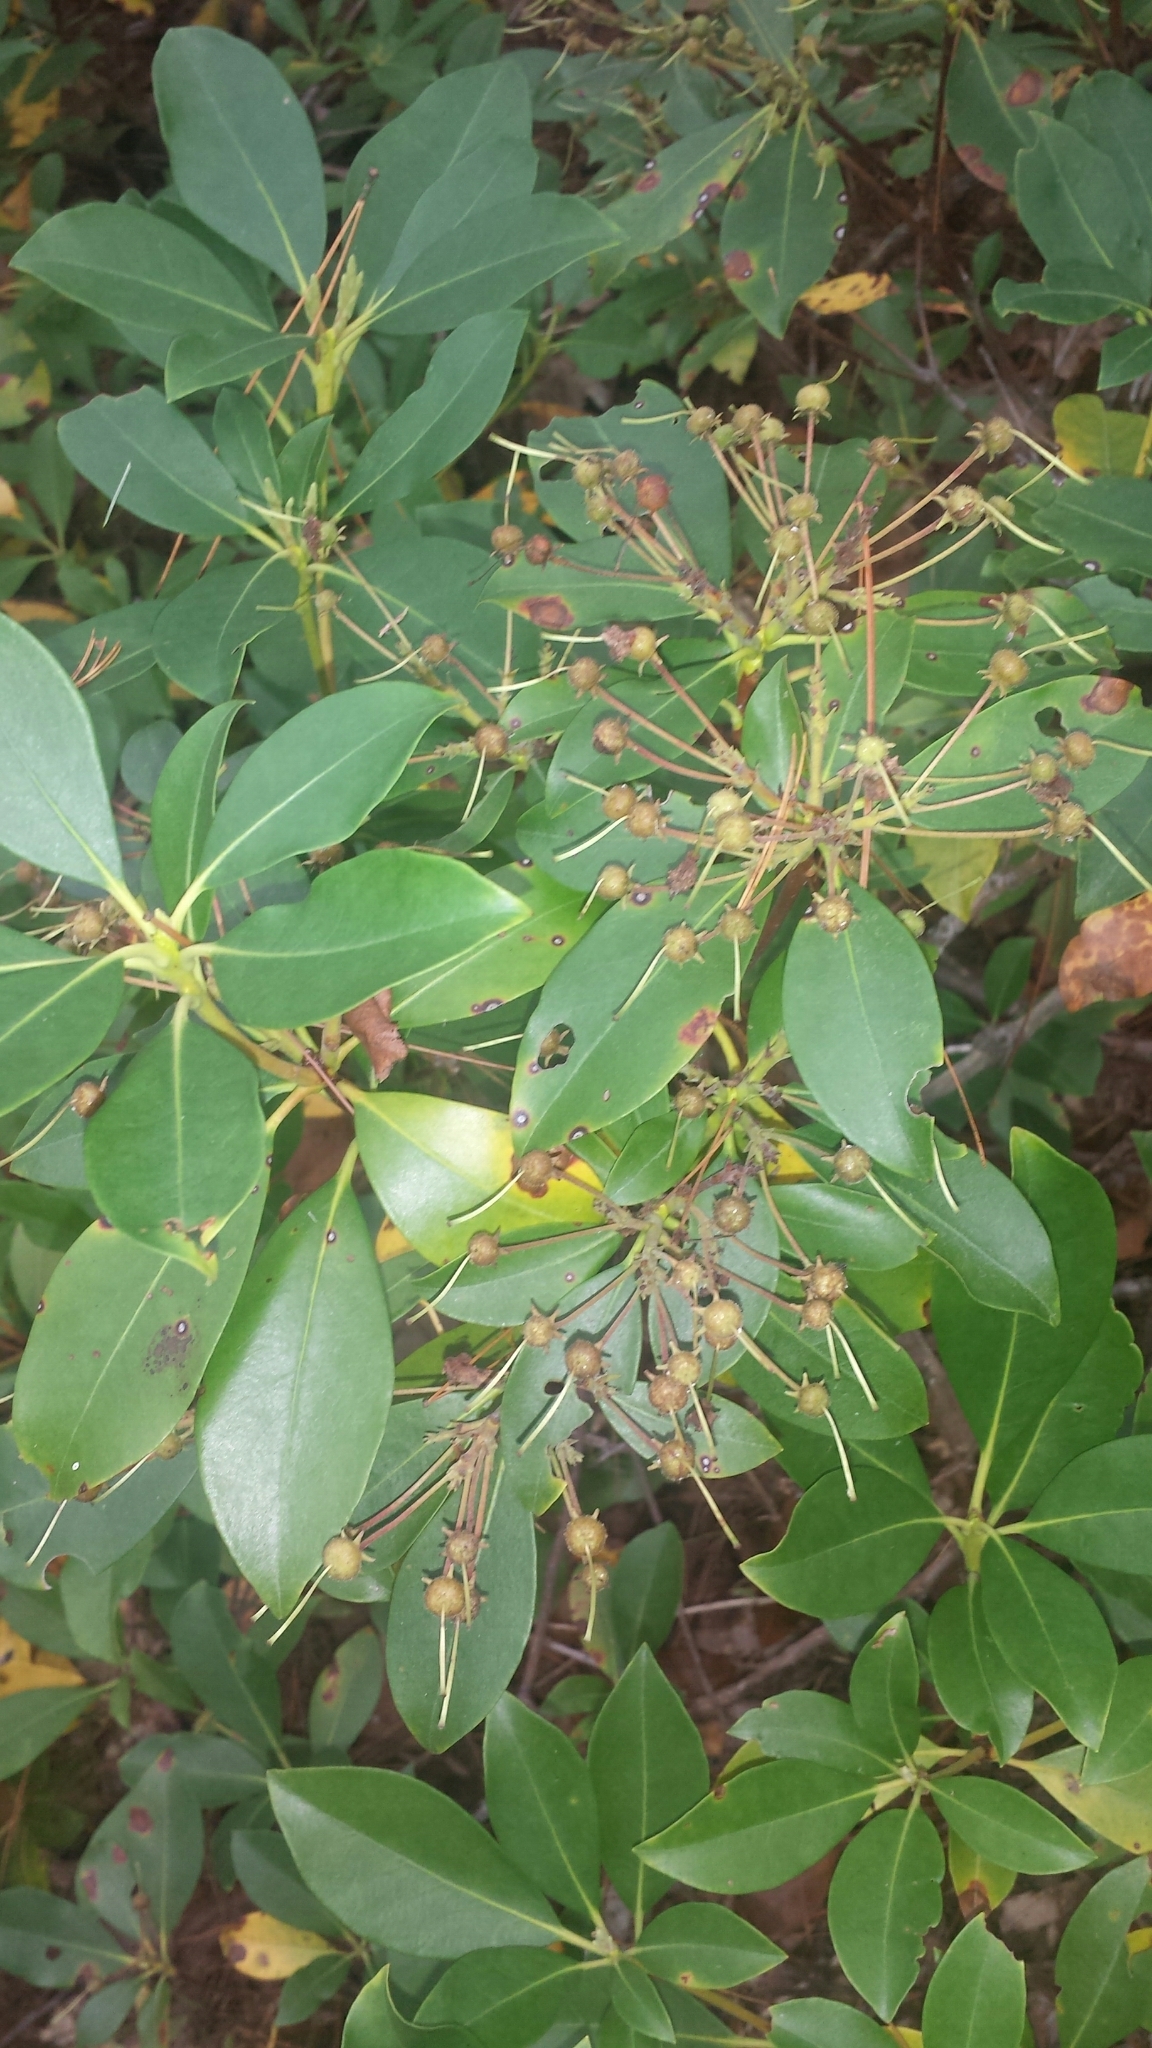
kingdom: Plantae
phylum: Tracheophyta
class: Magnoliopsida
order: Ericales
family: Ericaceae
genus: Kalmia
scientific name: Kalmia latifolia
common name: Mountain-laurel
